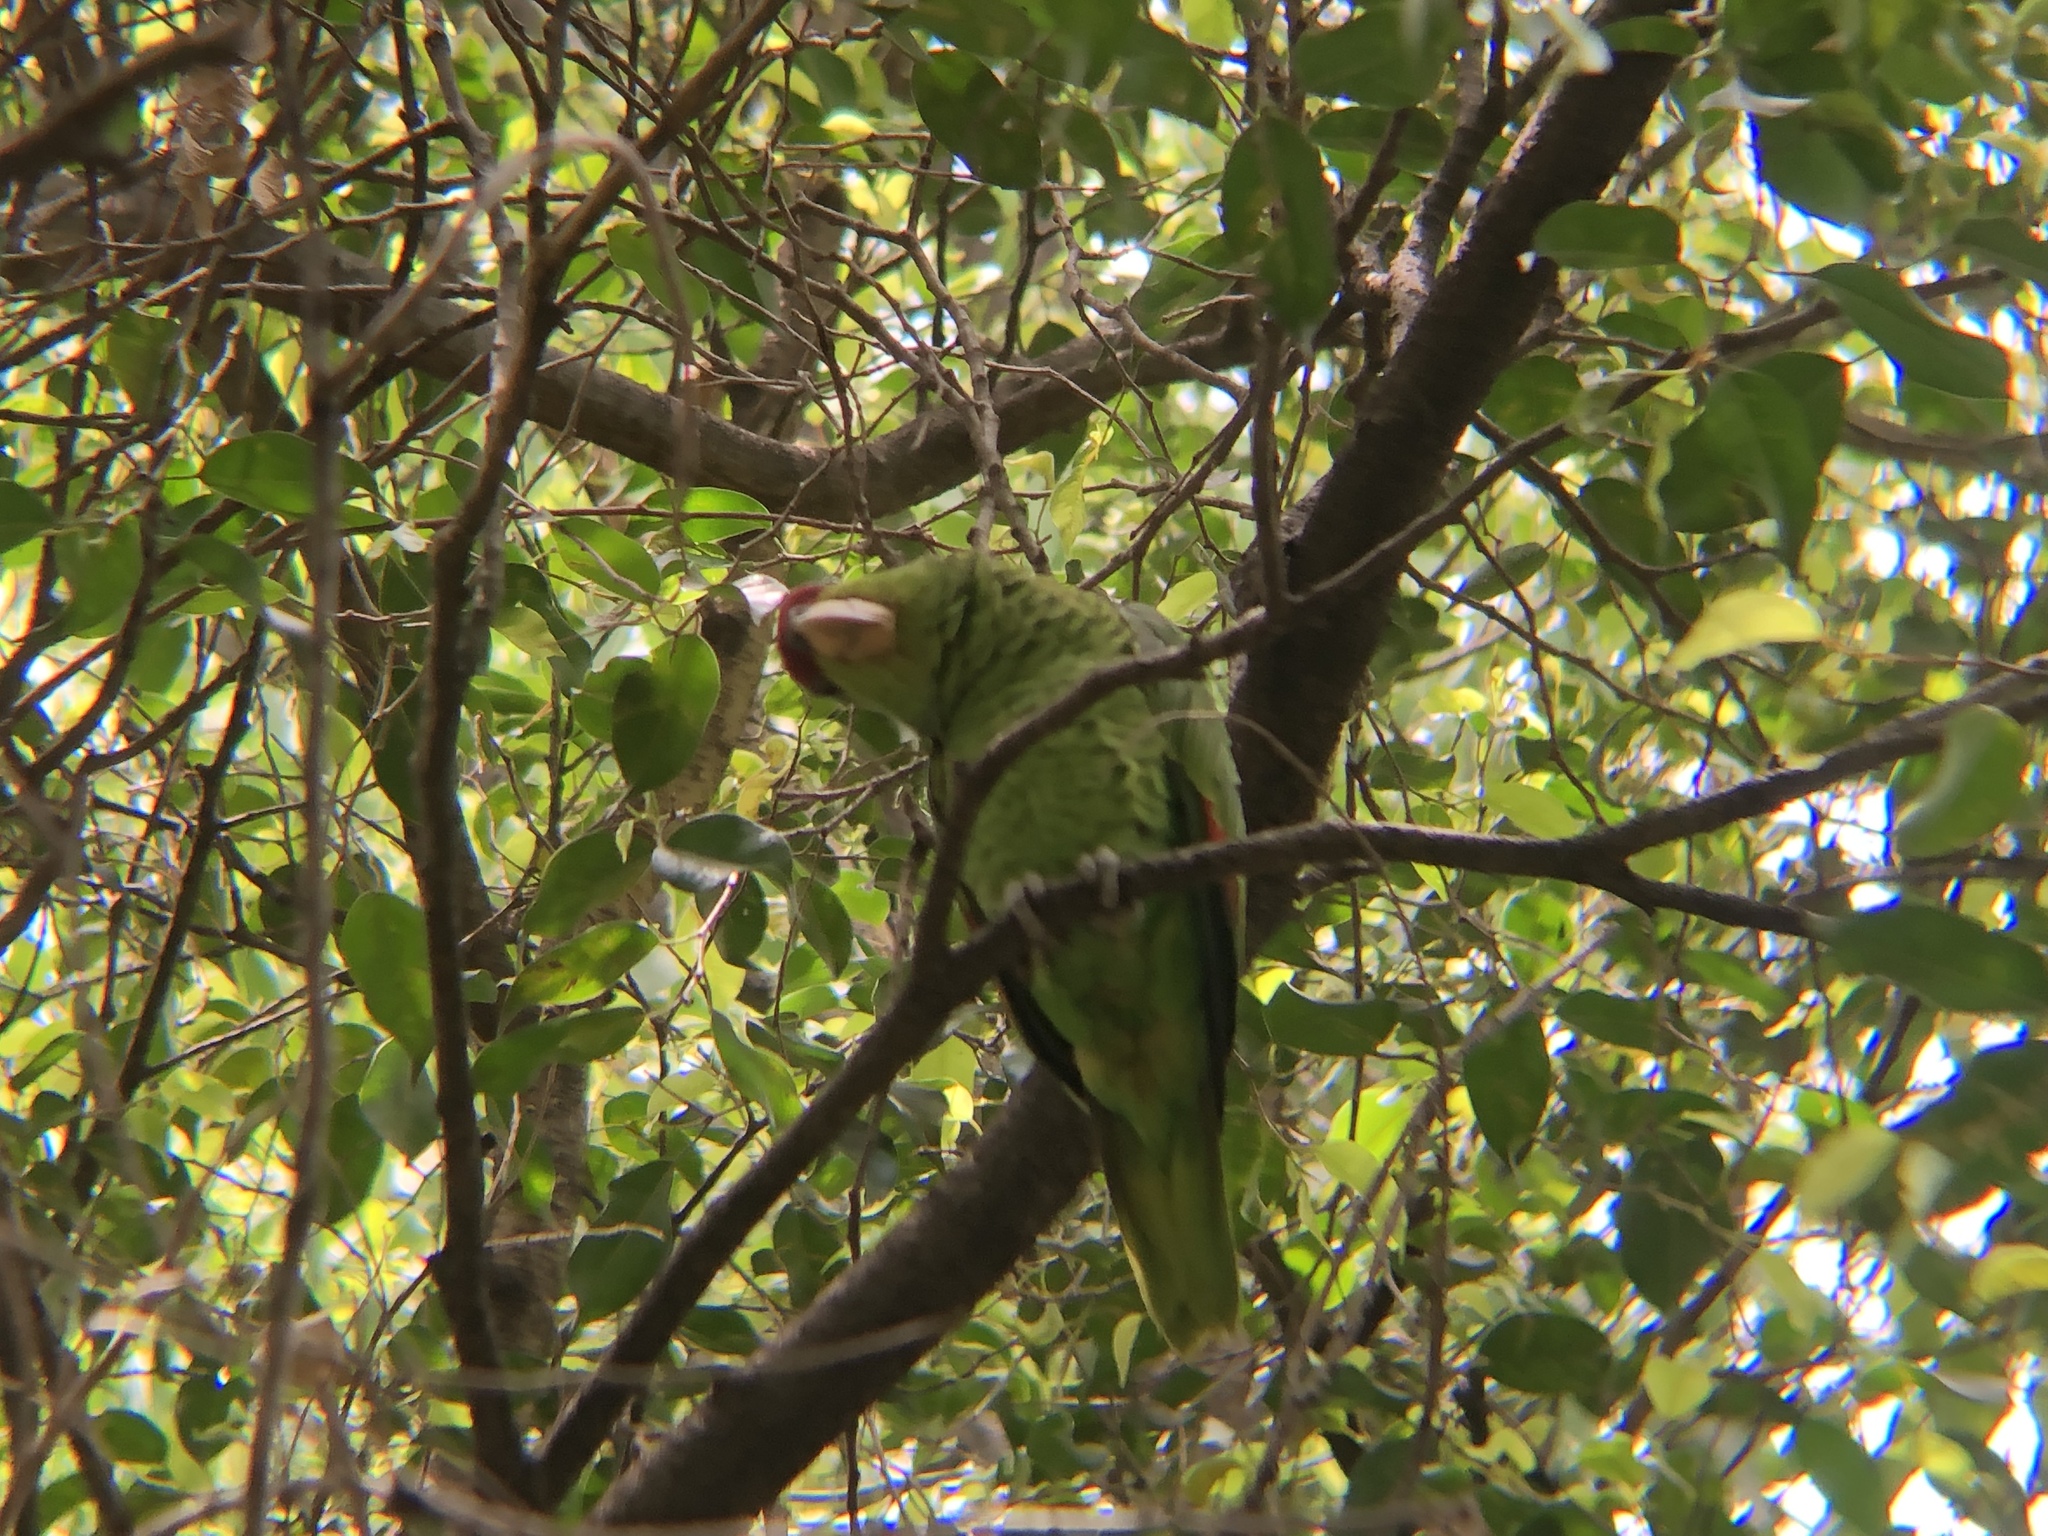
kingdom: Animalia
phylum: Chordata
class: Aves
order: Psittaciformes
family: Psittacidae
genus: Amazona
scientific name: Amazona finschi
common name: Lilac-crowned amazon
